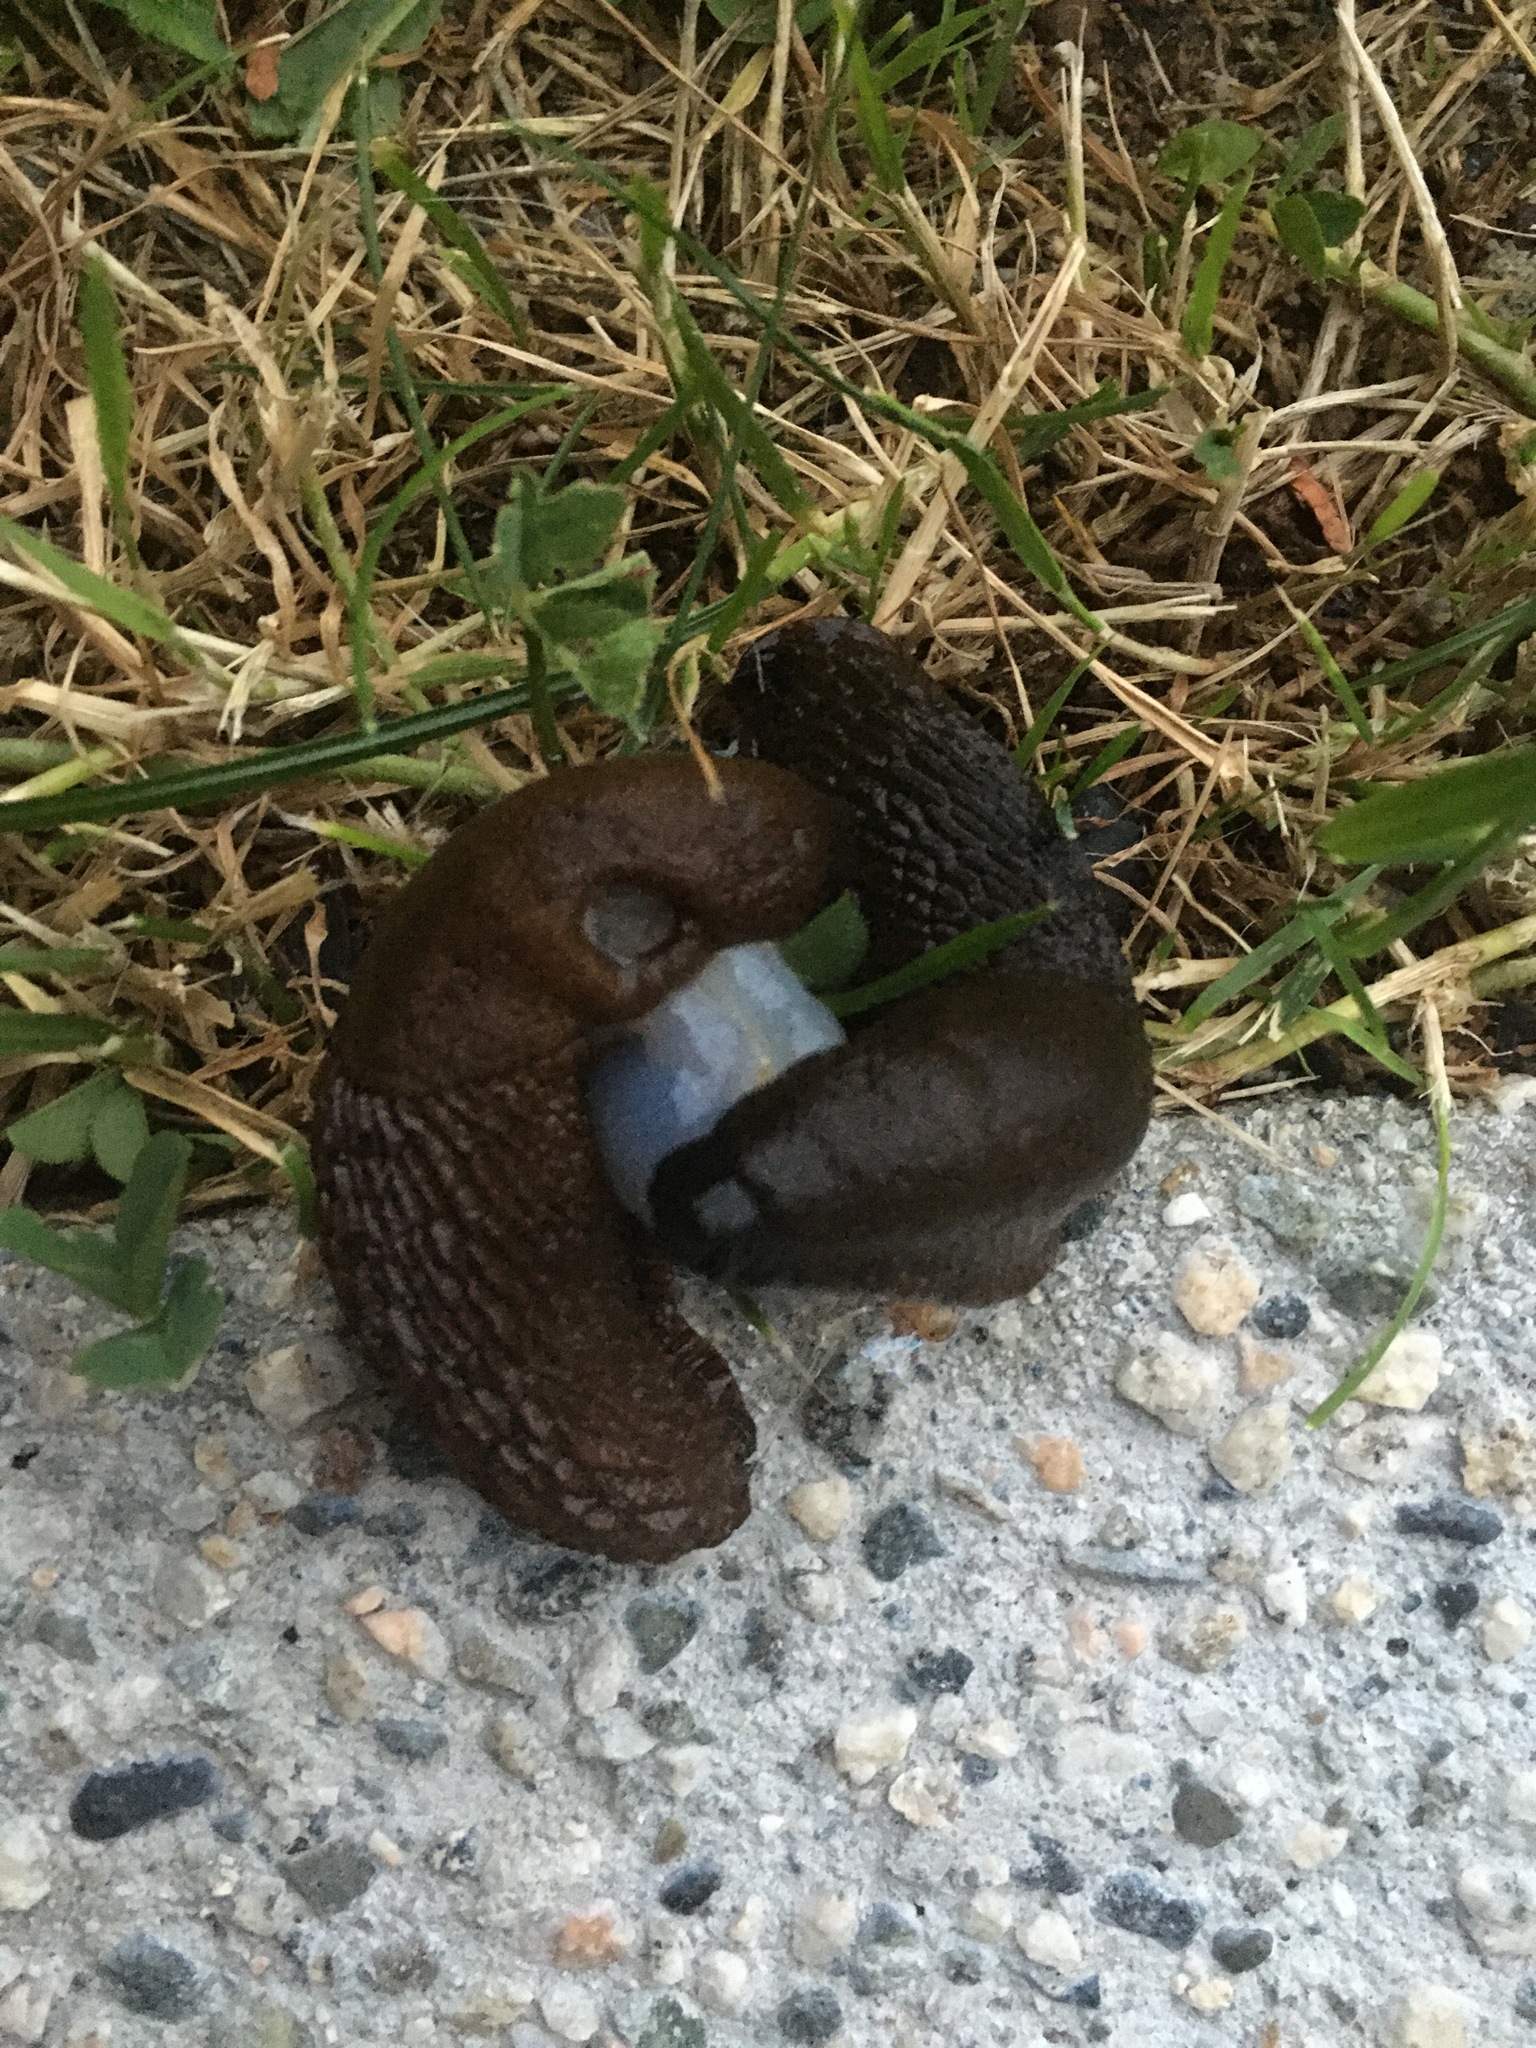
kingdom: Animalia
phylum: Mollusca
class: Gastropoda
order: Stylommatophora
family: Arionidae
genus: Arion
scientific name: Arion
